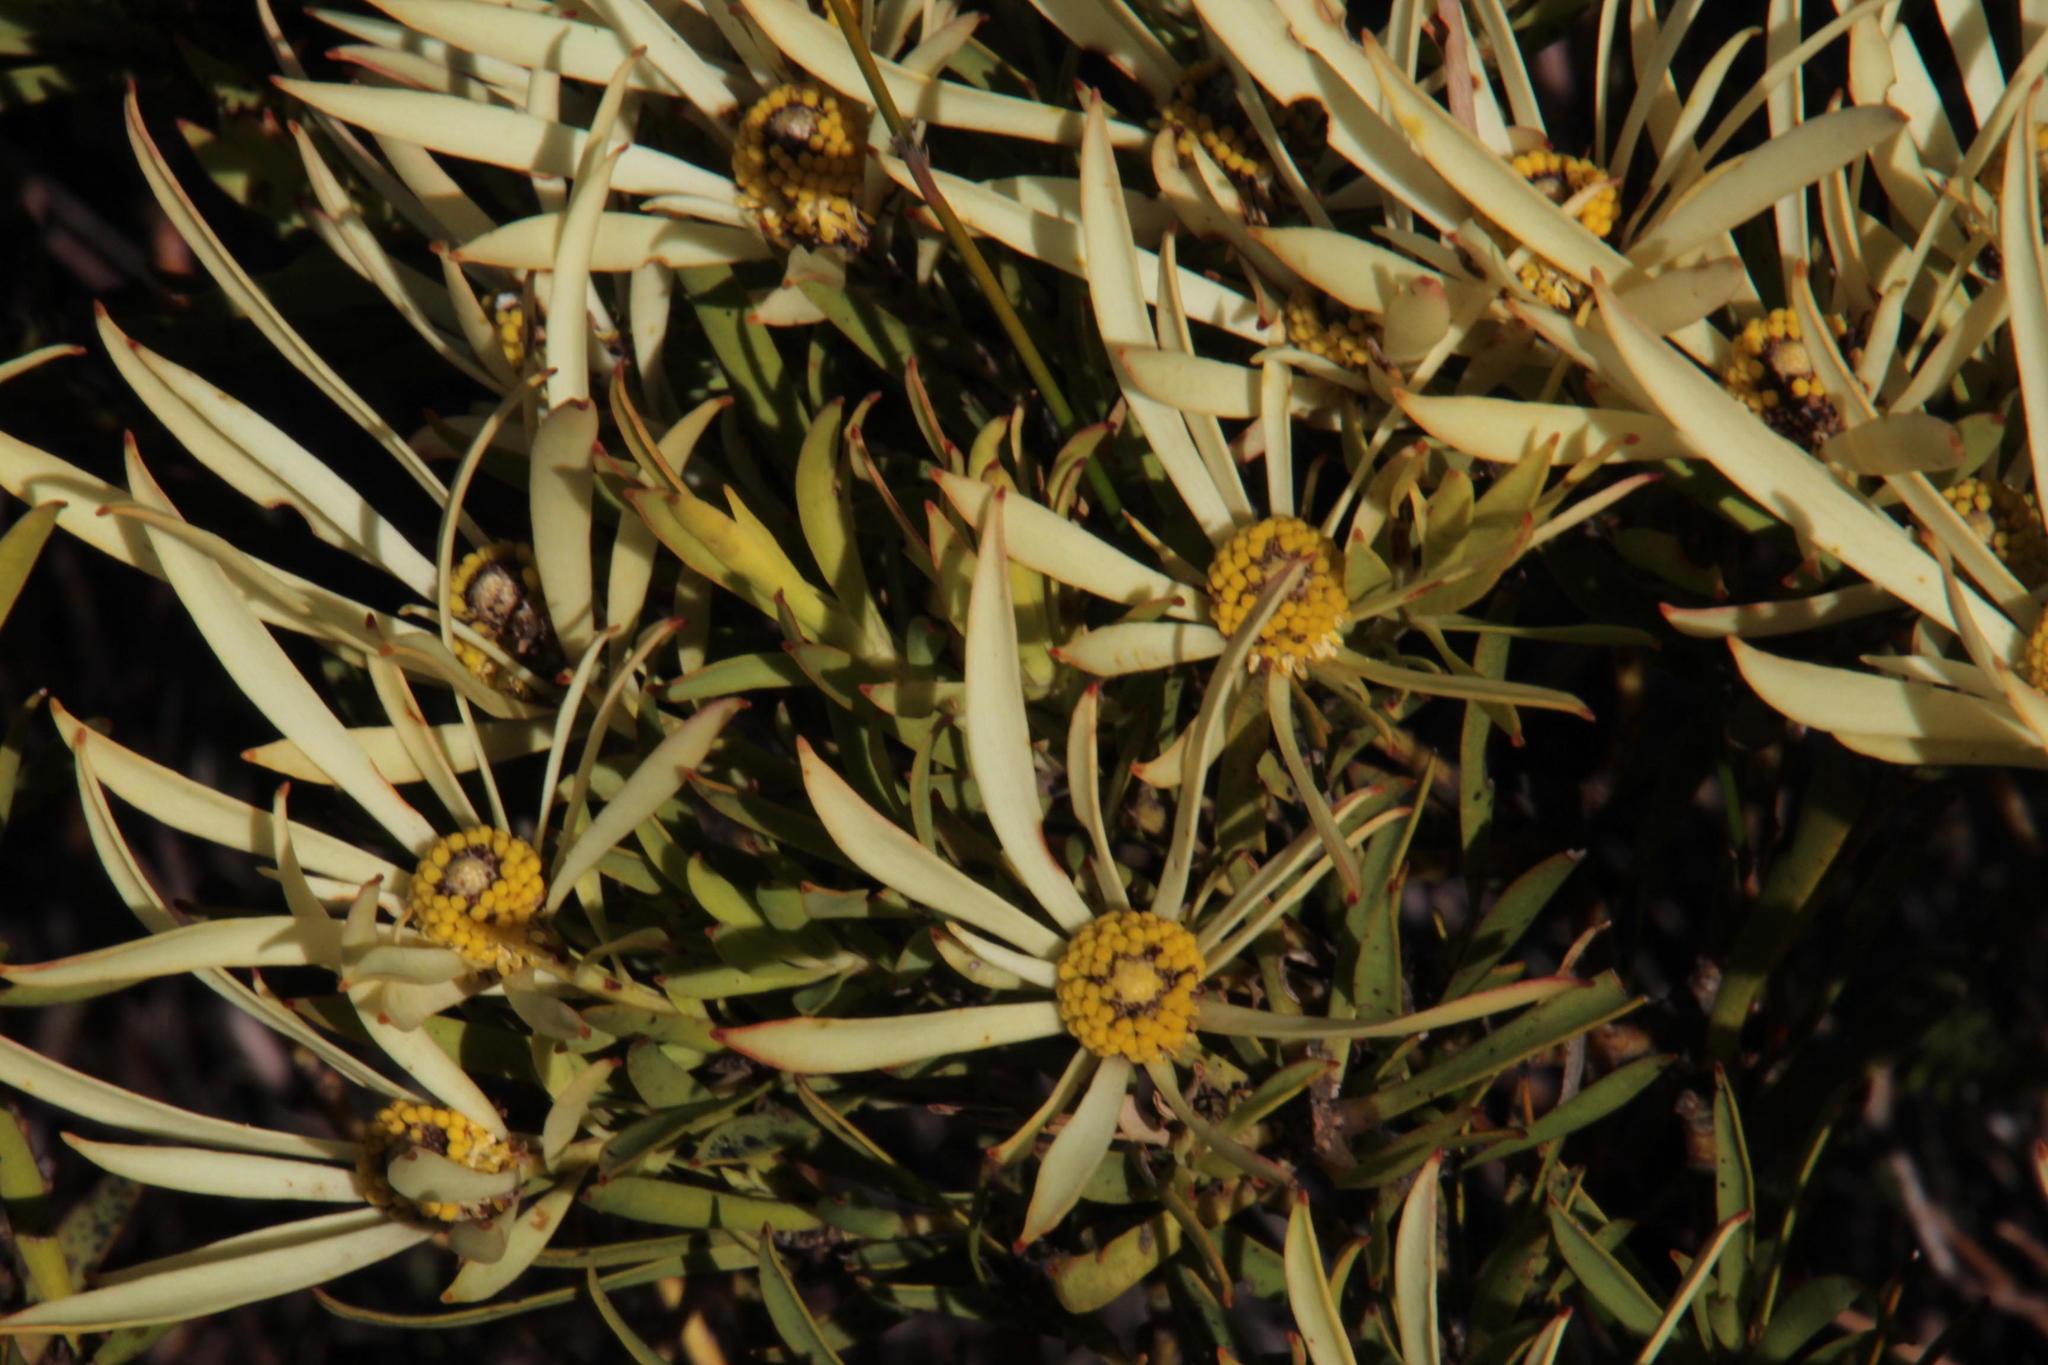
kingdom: Plantae
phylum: Tracheophyta
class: Magnoliopsida
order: Proteales
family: Proteaceae
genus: Leucadendron
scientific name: Leucadendron salignum
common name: Common sunshine conebush
